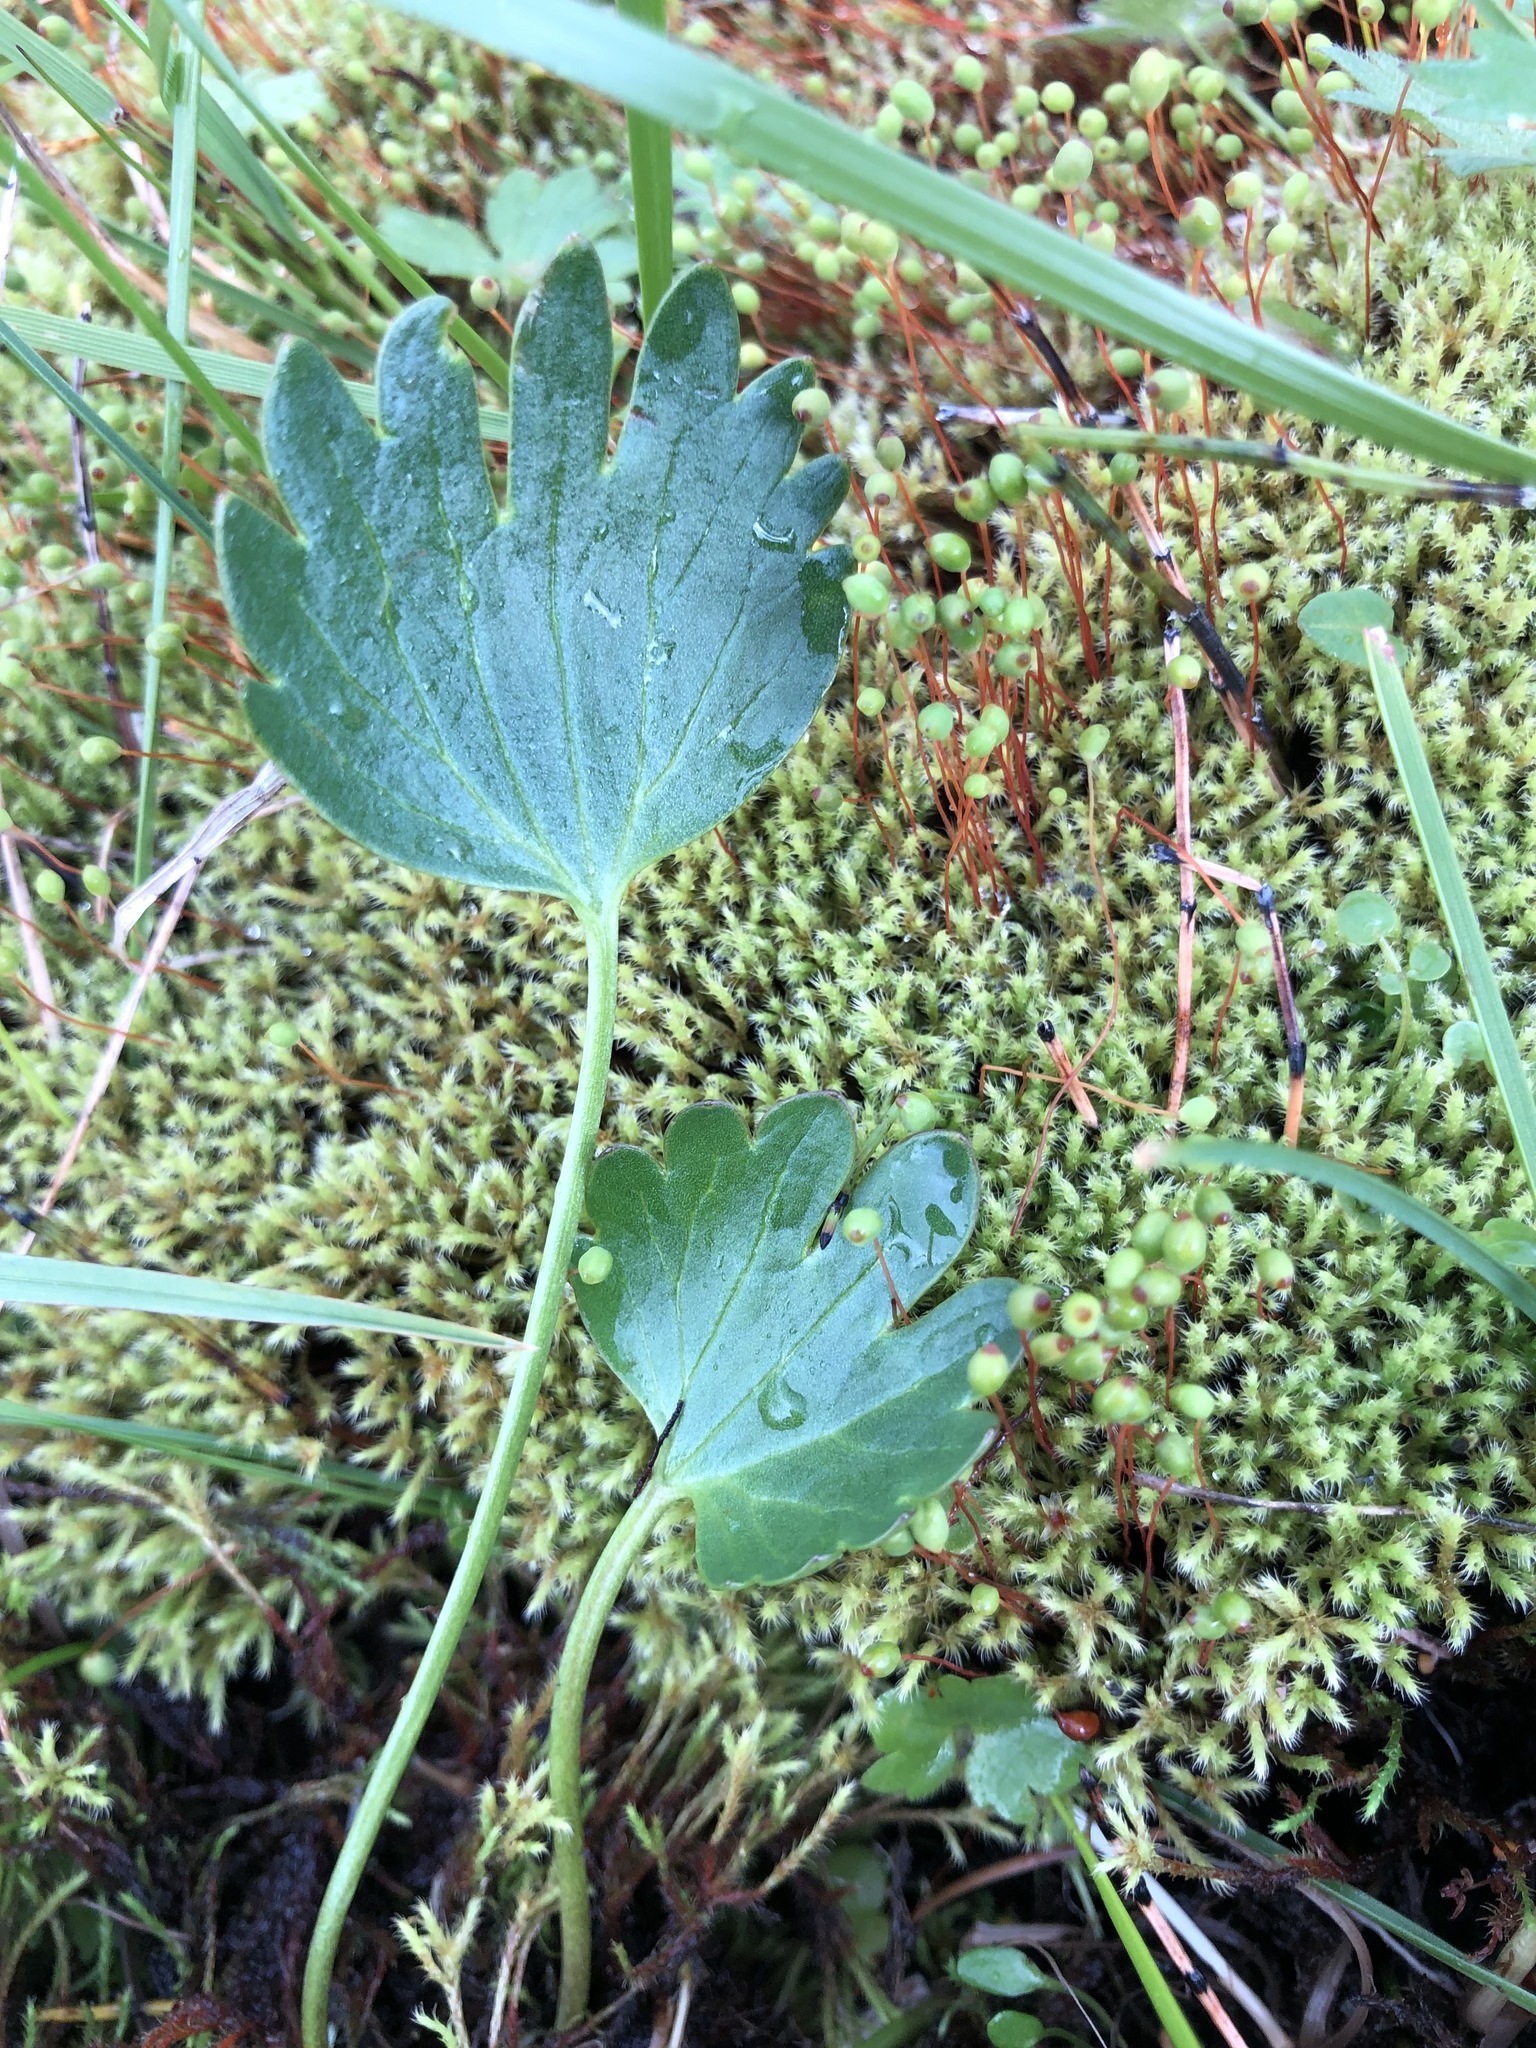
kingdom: Plantae
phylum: Tracheophyta
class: Magnoliopsida
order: Ranunculales
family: Ranunculaceae
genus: Ranunculus
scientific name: Ranunculus sulphureus
